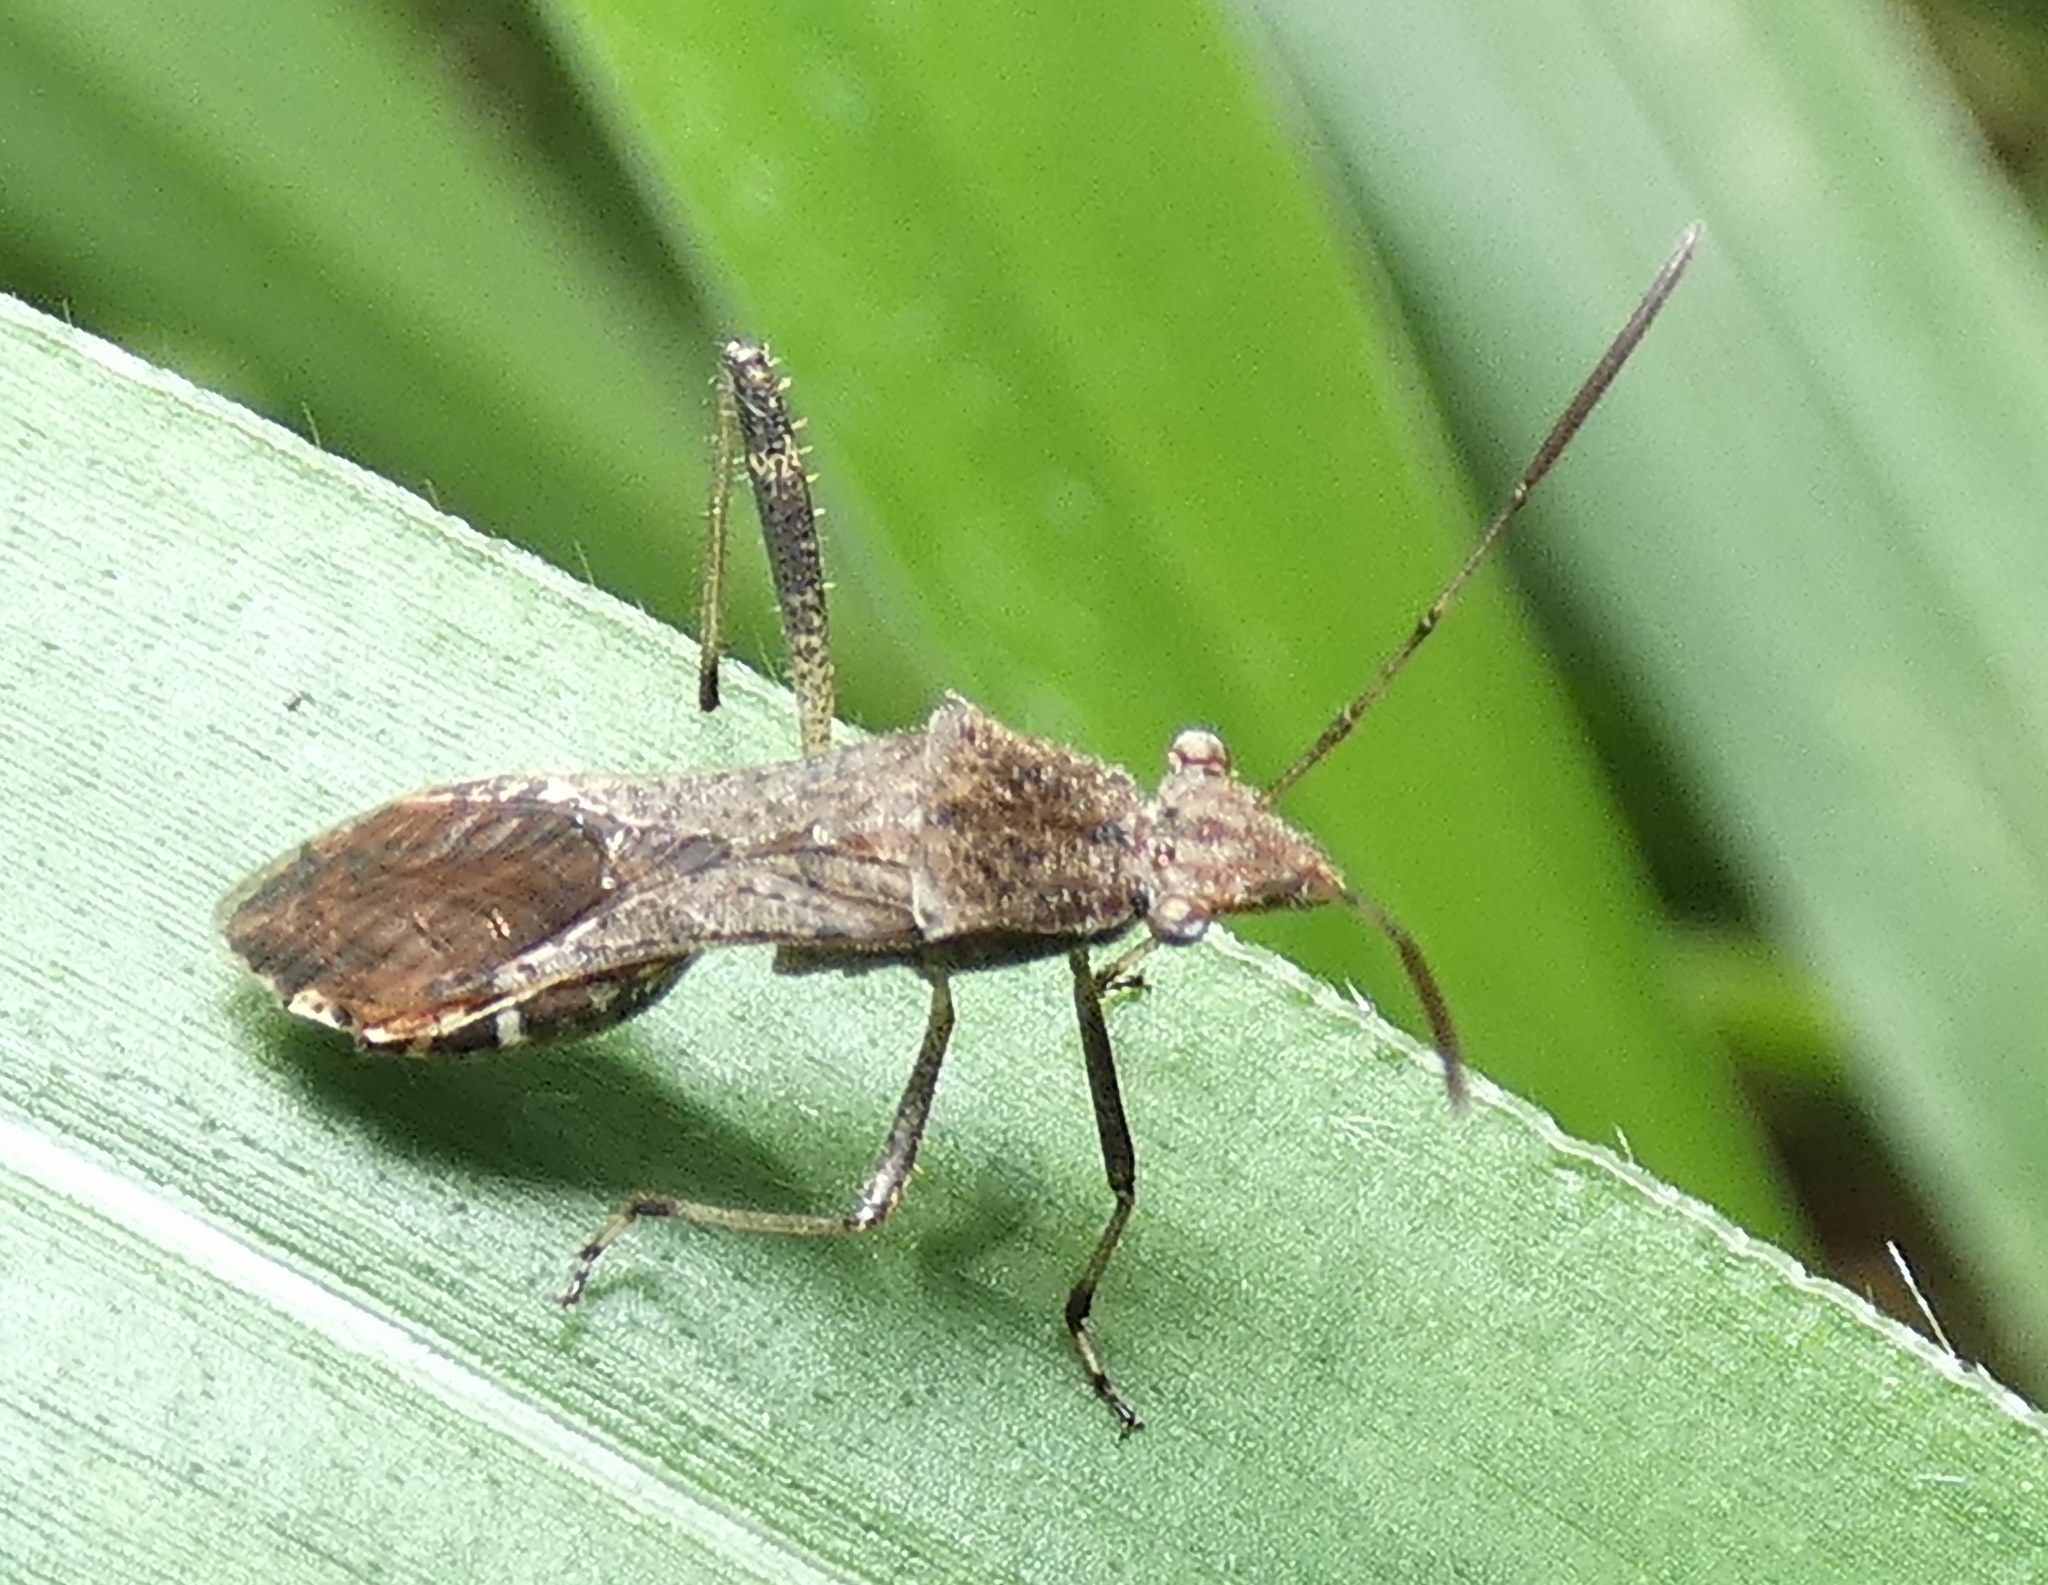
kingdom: Animalia
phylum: Arthropoda
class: Insecta
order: Hemiptera
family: Alydidae
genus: Neomegalotomus
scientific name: Neomegalotomus parvus
